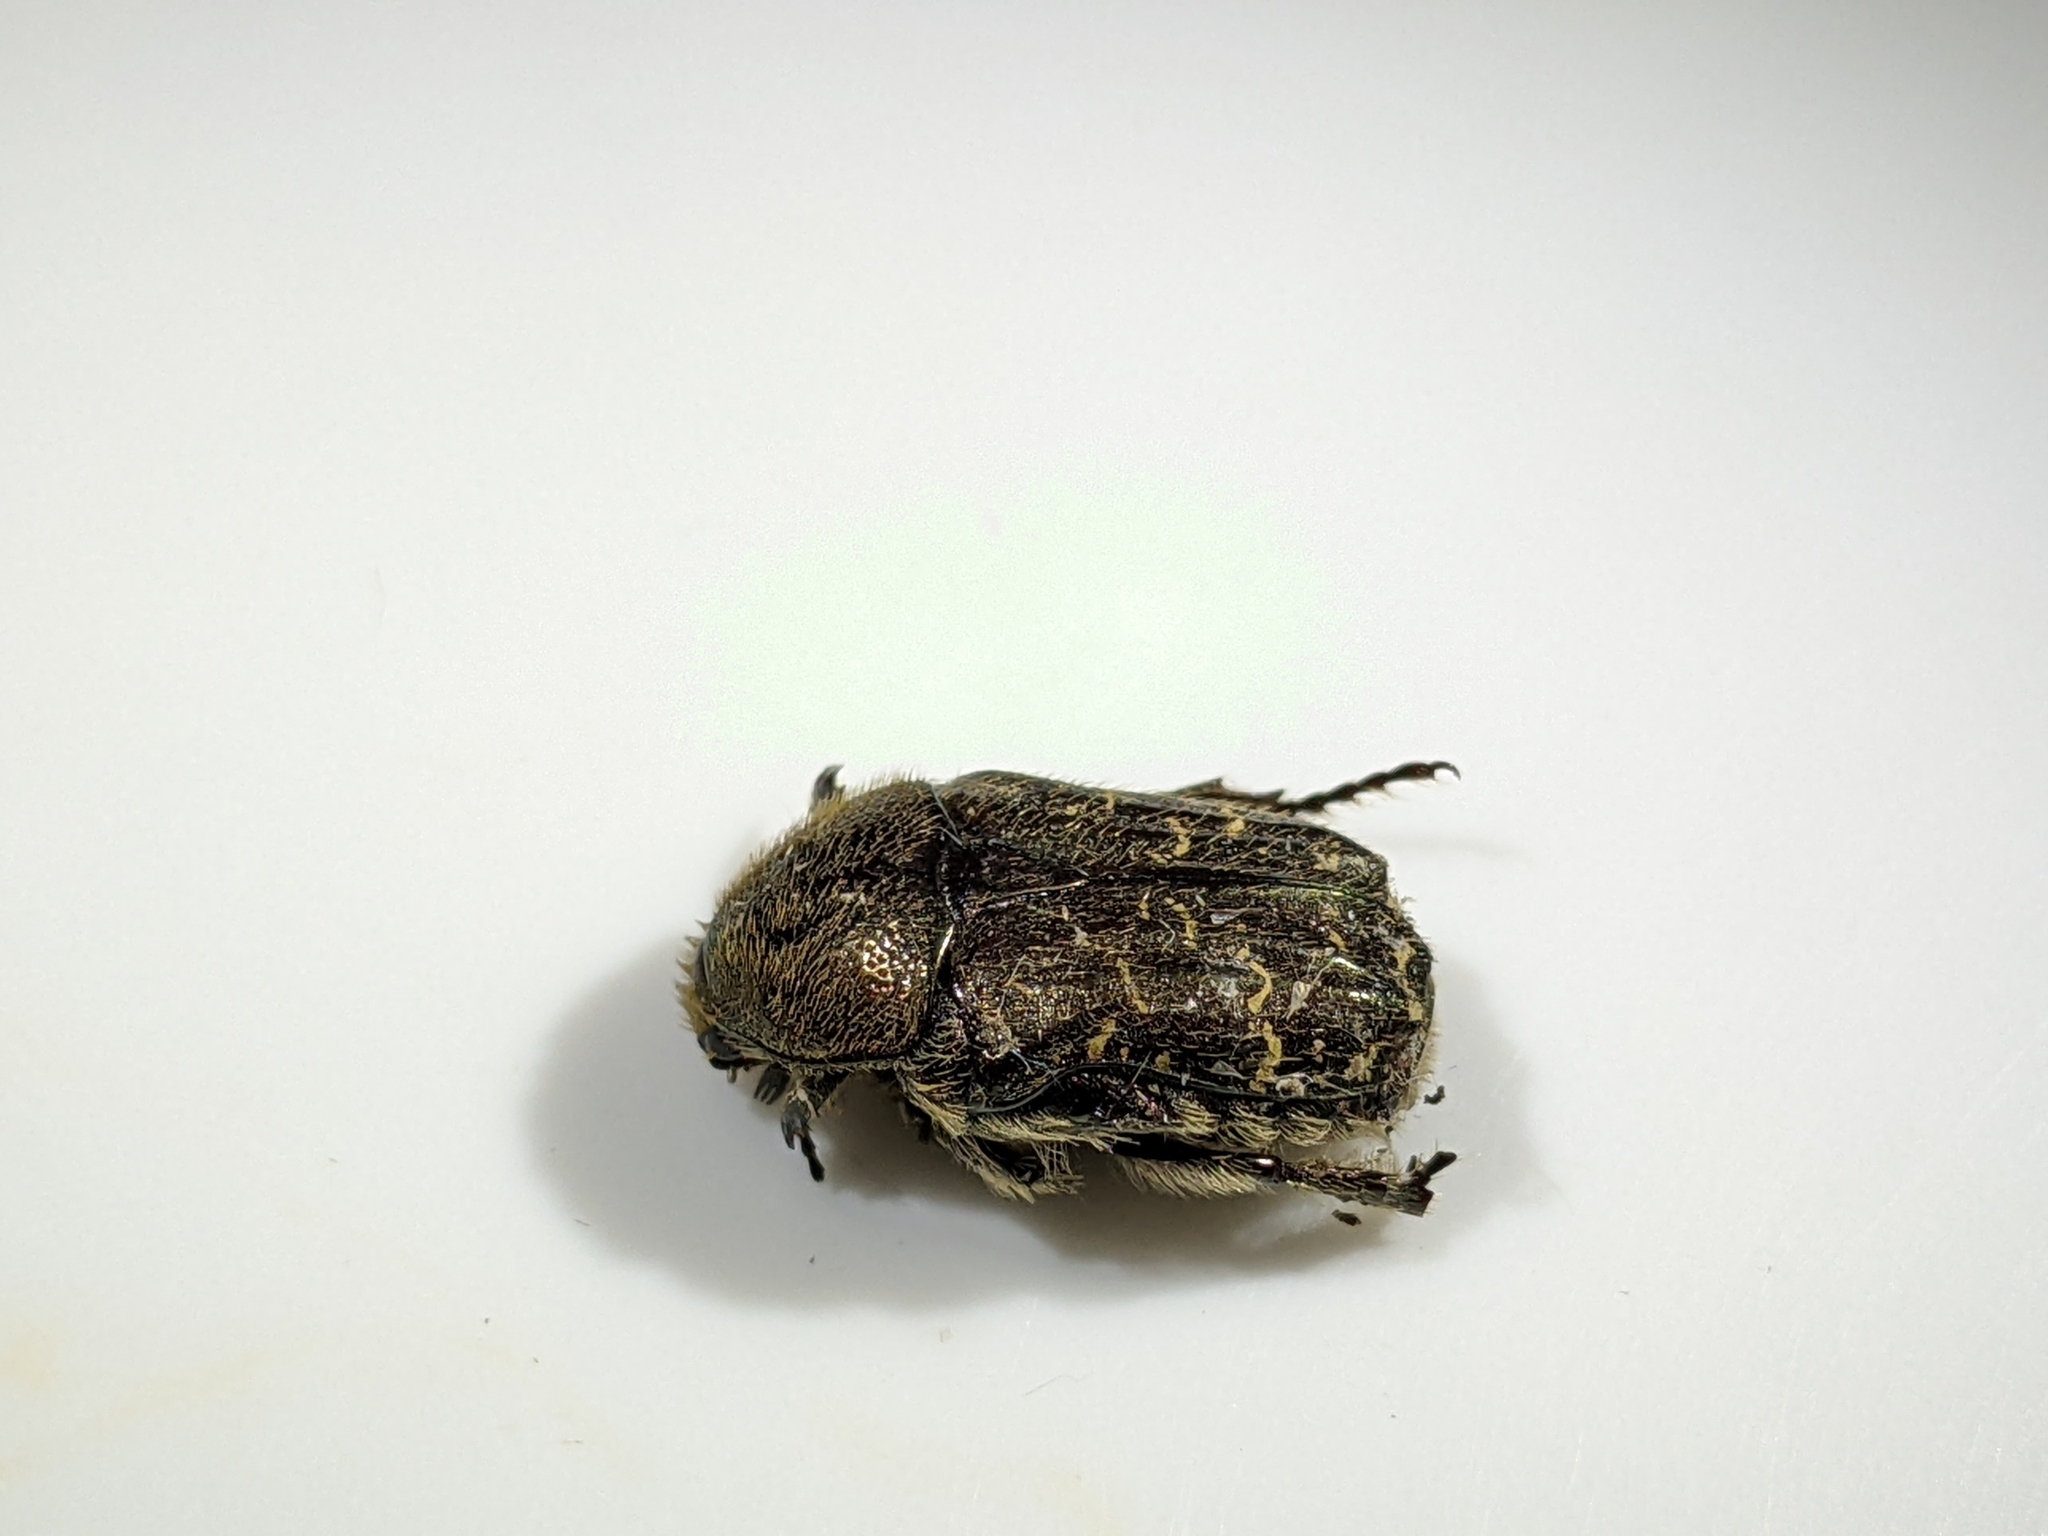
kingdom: Animalia
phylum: Arthropoda
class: Insecta
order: Coleoptera
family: Scarabaeidae
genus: Euphoria
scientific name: Euphoria sepulcralis
